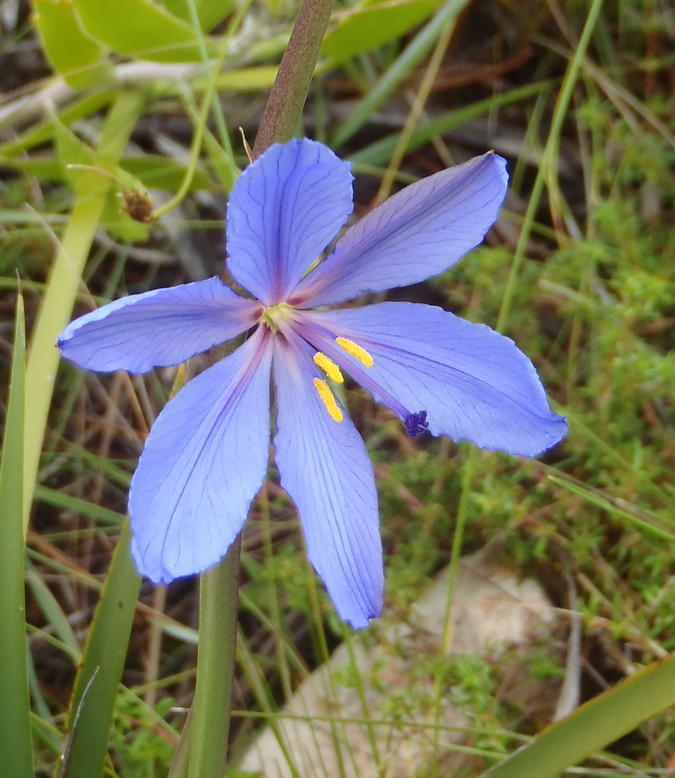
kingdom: Plantae
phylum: Tracheophyta
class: Liliopsida
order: Asparagales
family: Iridaceae
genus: Aristea
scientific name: Aristea spiralis
